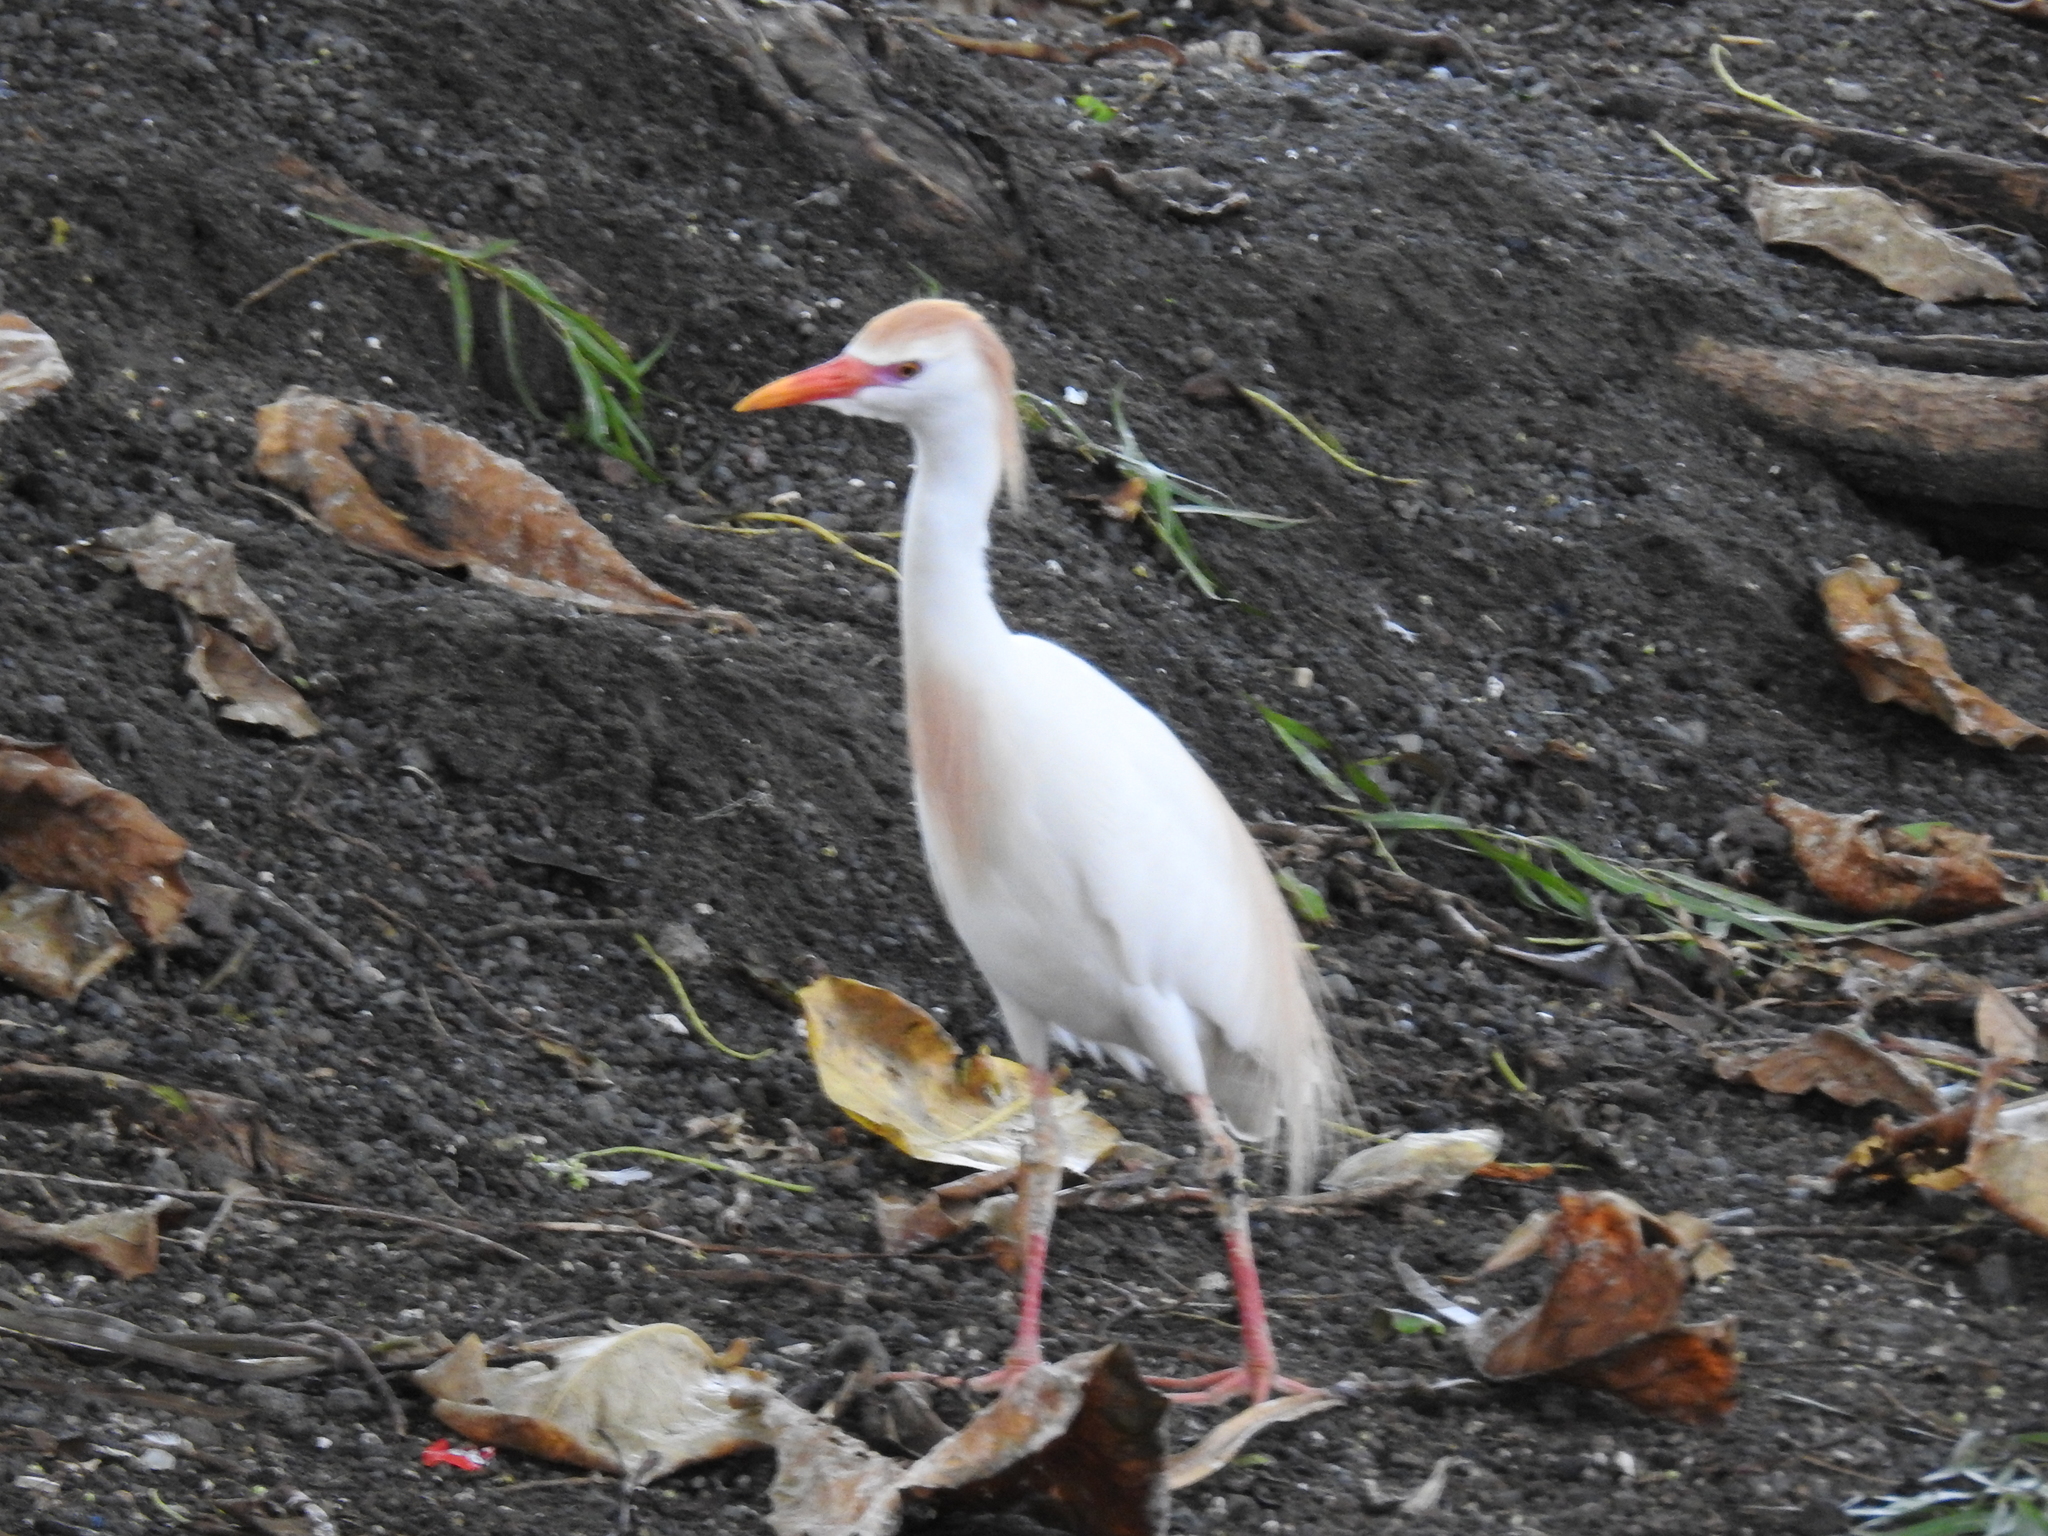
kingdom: Animalia
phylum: Chordata
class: Aves
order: Pelecaniformes
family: Ardeidae
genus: Bubulcus
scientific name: Bubulcus ibis
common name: Cattle egret
